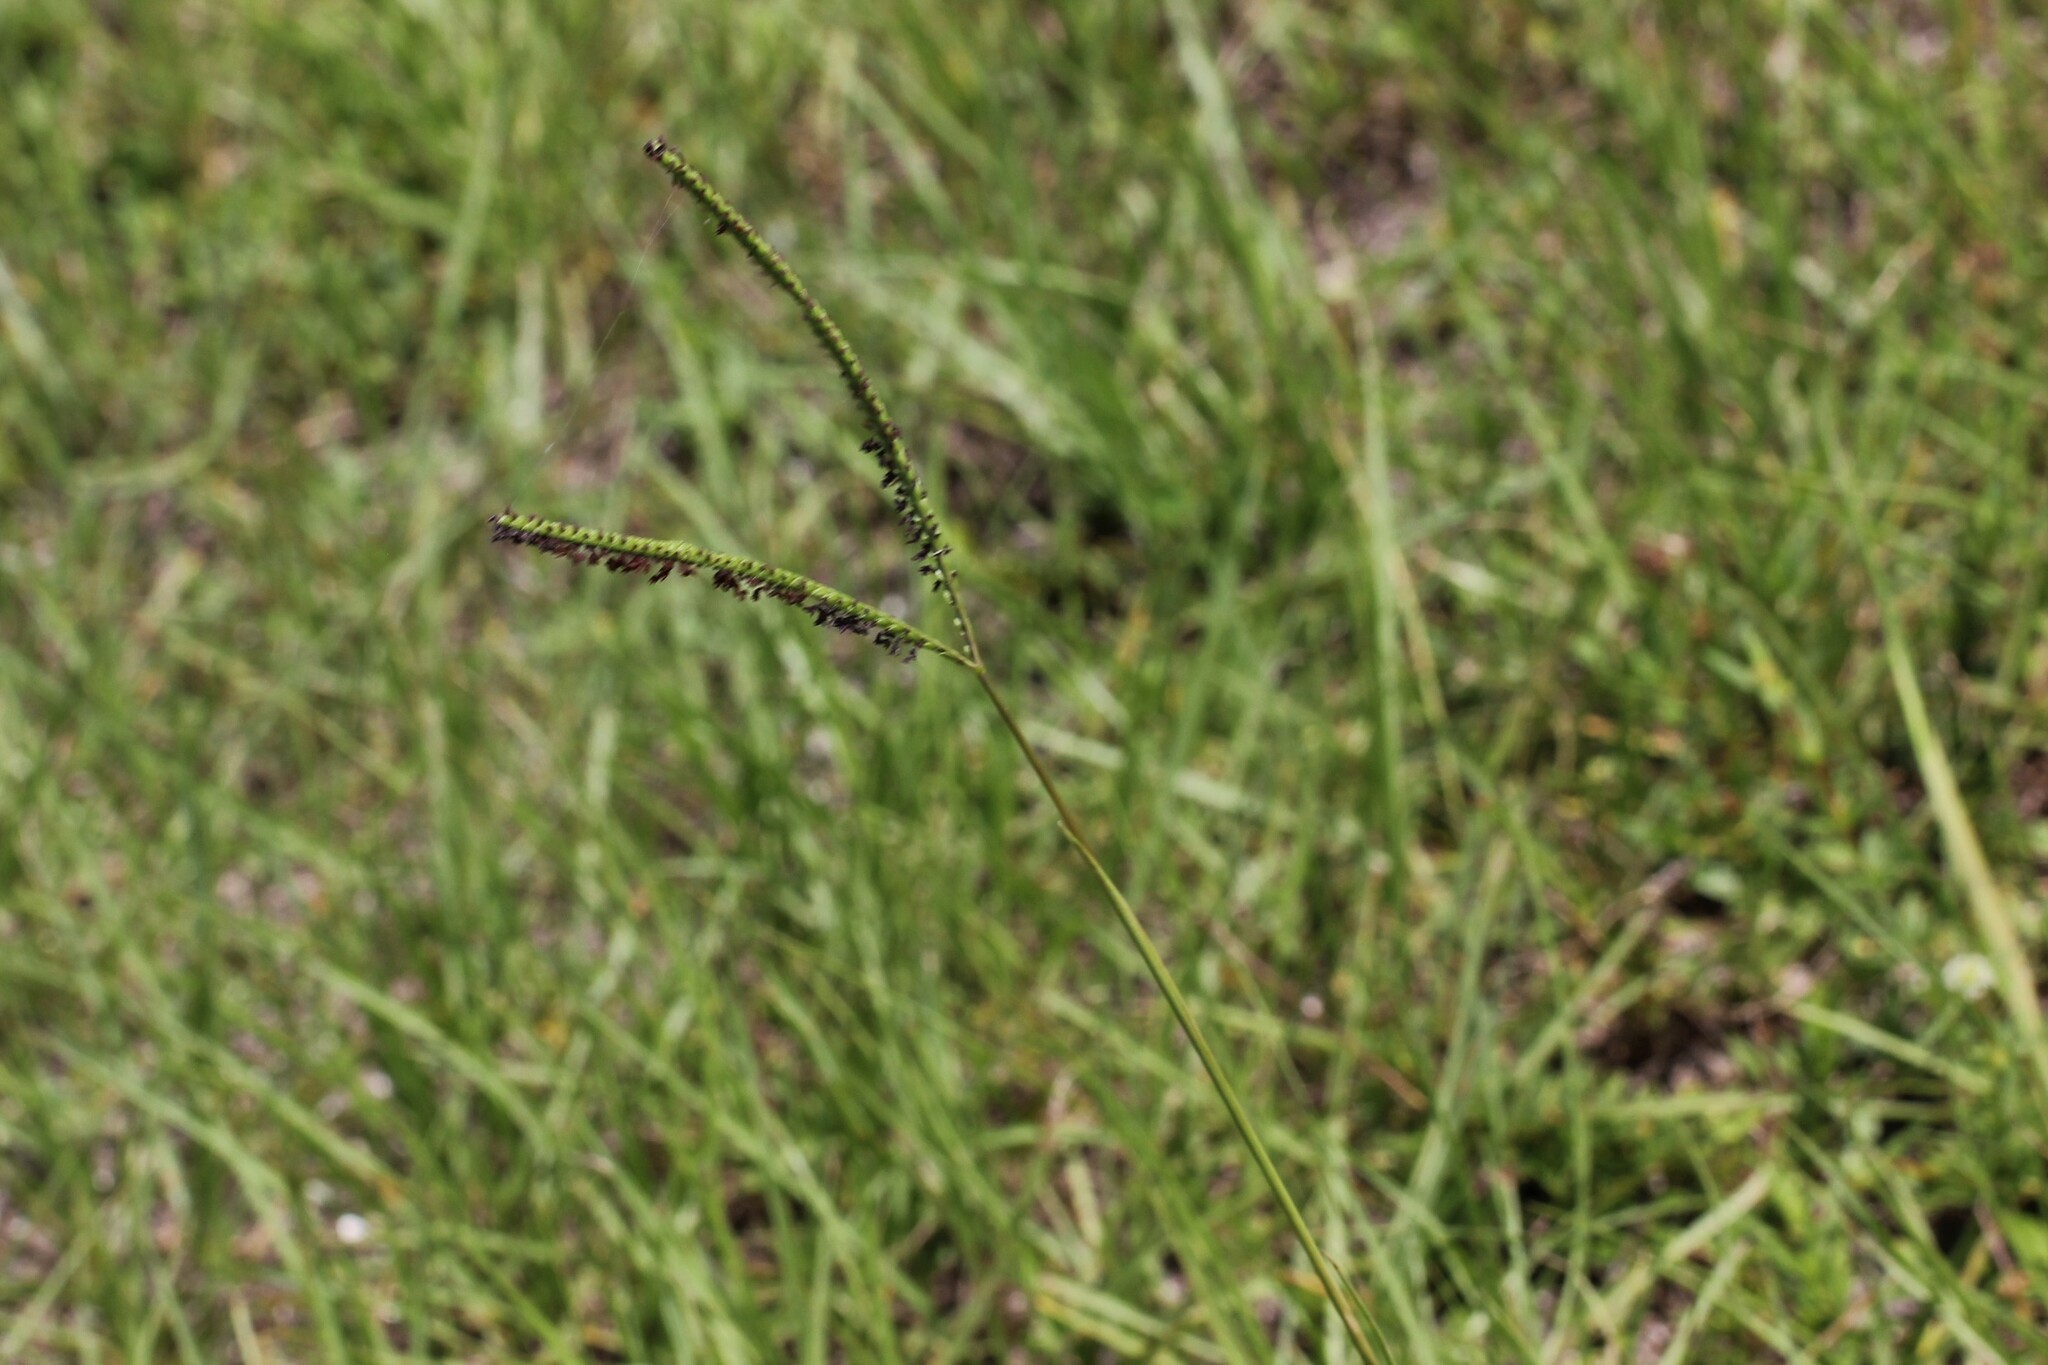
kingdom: Plantae
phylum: Tracheophyta
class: Liliopsida
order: Poales
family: Poaceae
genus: Paspalum
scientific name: Paspalum notatum
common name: Bahiagrass
